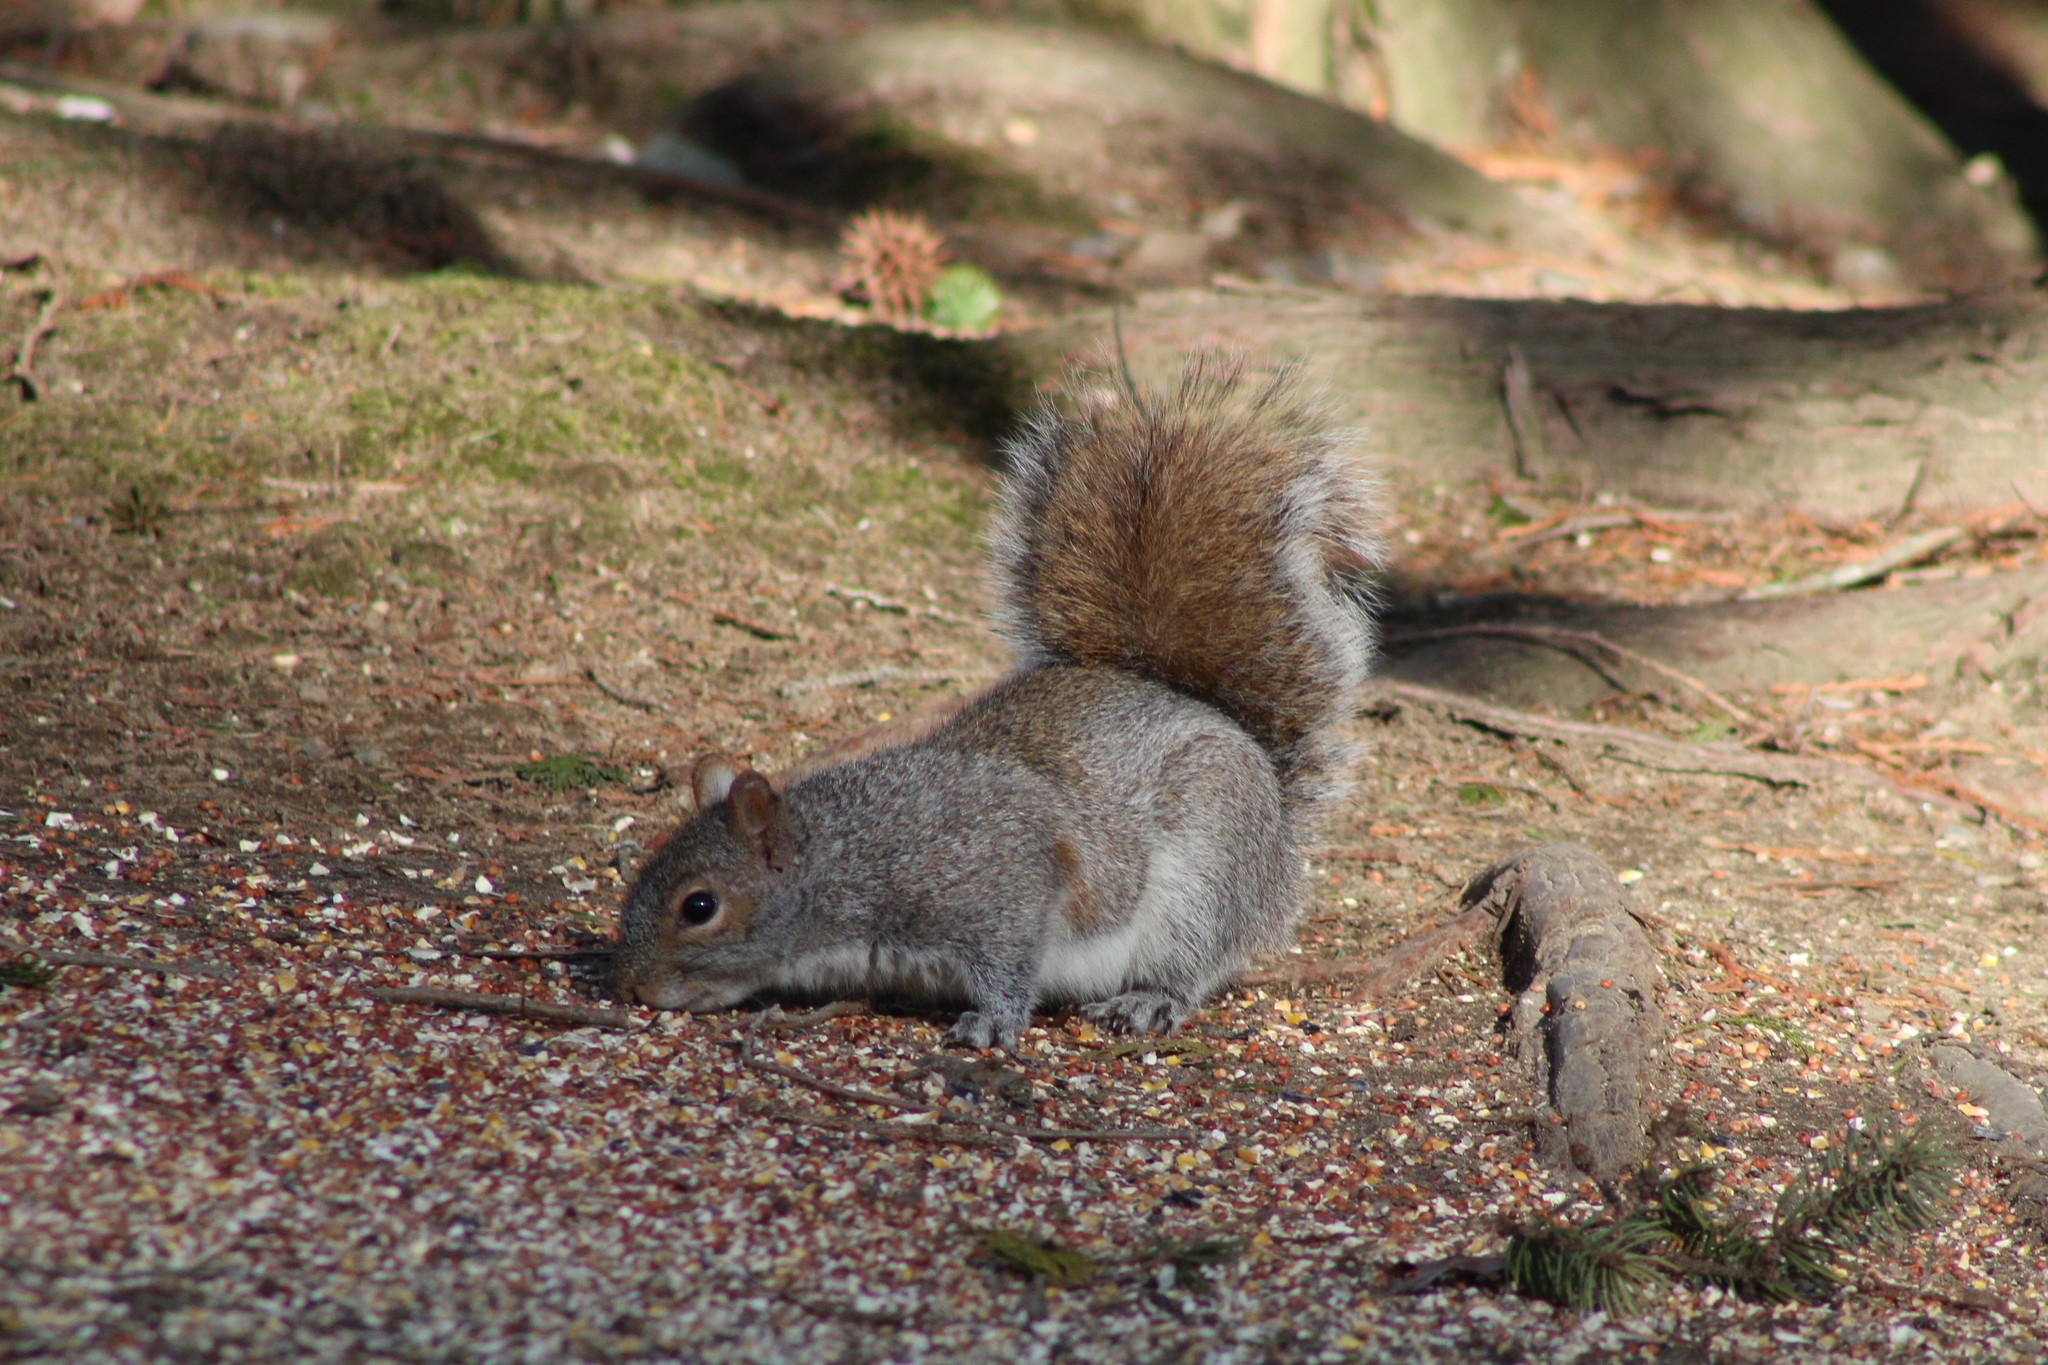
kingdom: Animalia
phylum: Chordata
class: Mammalia
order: Rodentia
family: Sciuridae
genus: Sciurus
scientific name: Sciurus carolinensis
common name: Eastern gray squirrel
